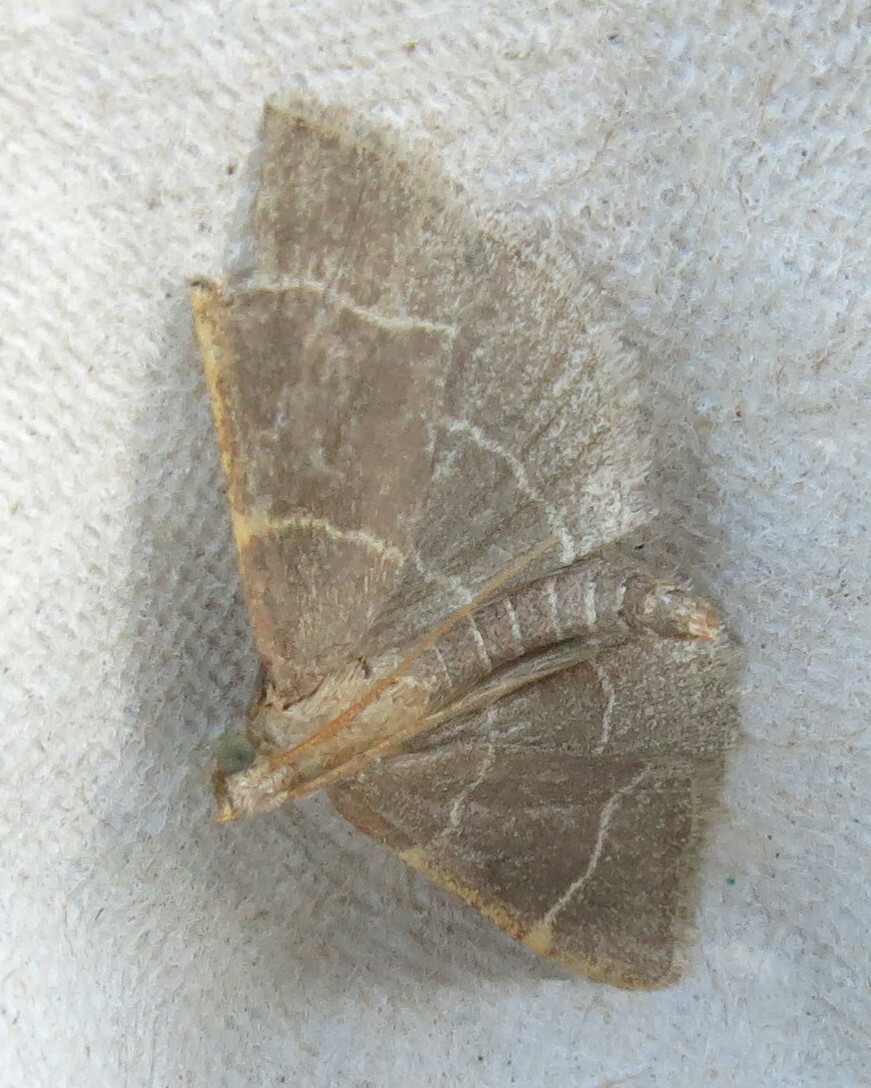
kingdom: Animalia
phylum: Arthropoda
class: Insecta
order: Lepidoptera
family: Pyralidae
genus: Hypsopygia
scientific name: Hypsopygia glaucinalis
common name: Double-striped tabby
